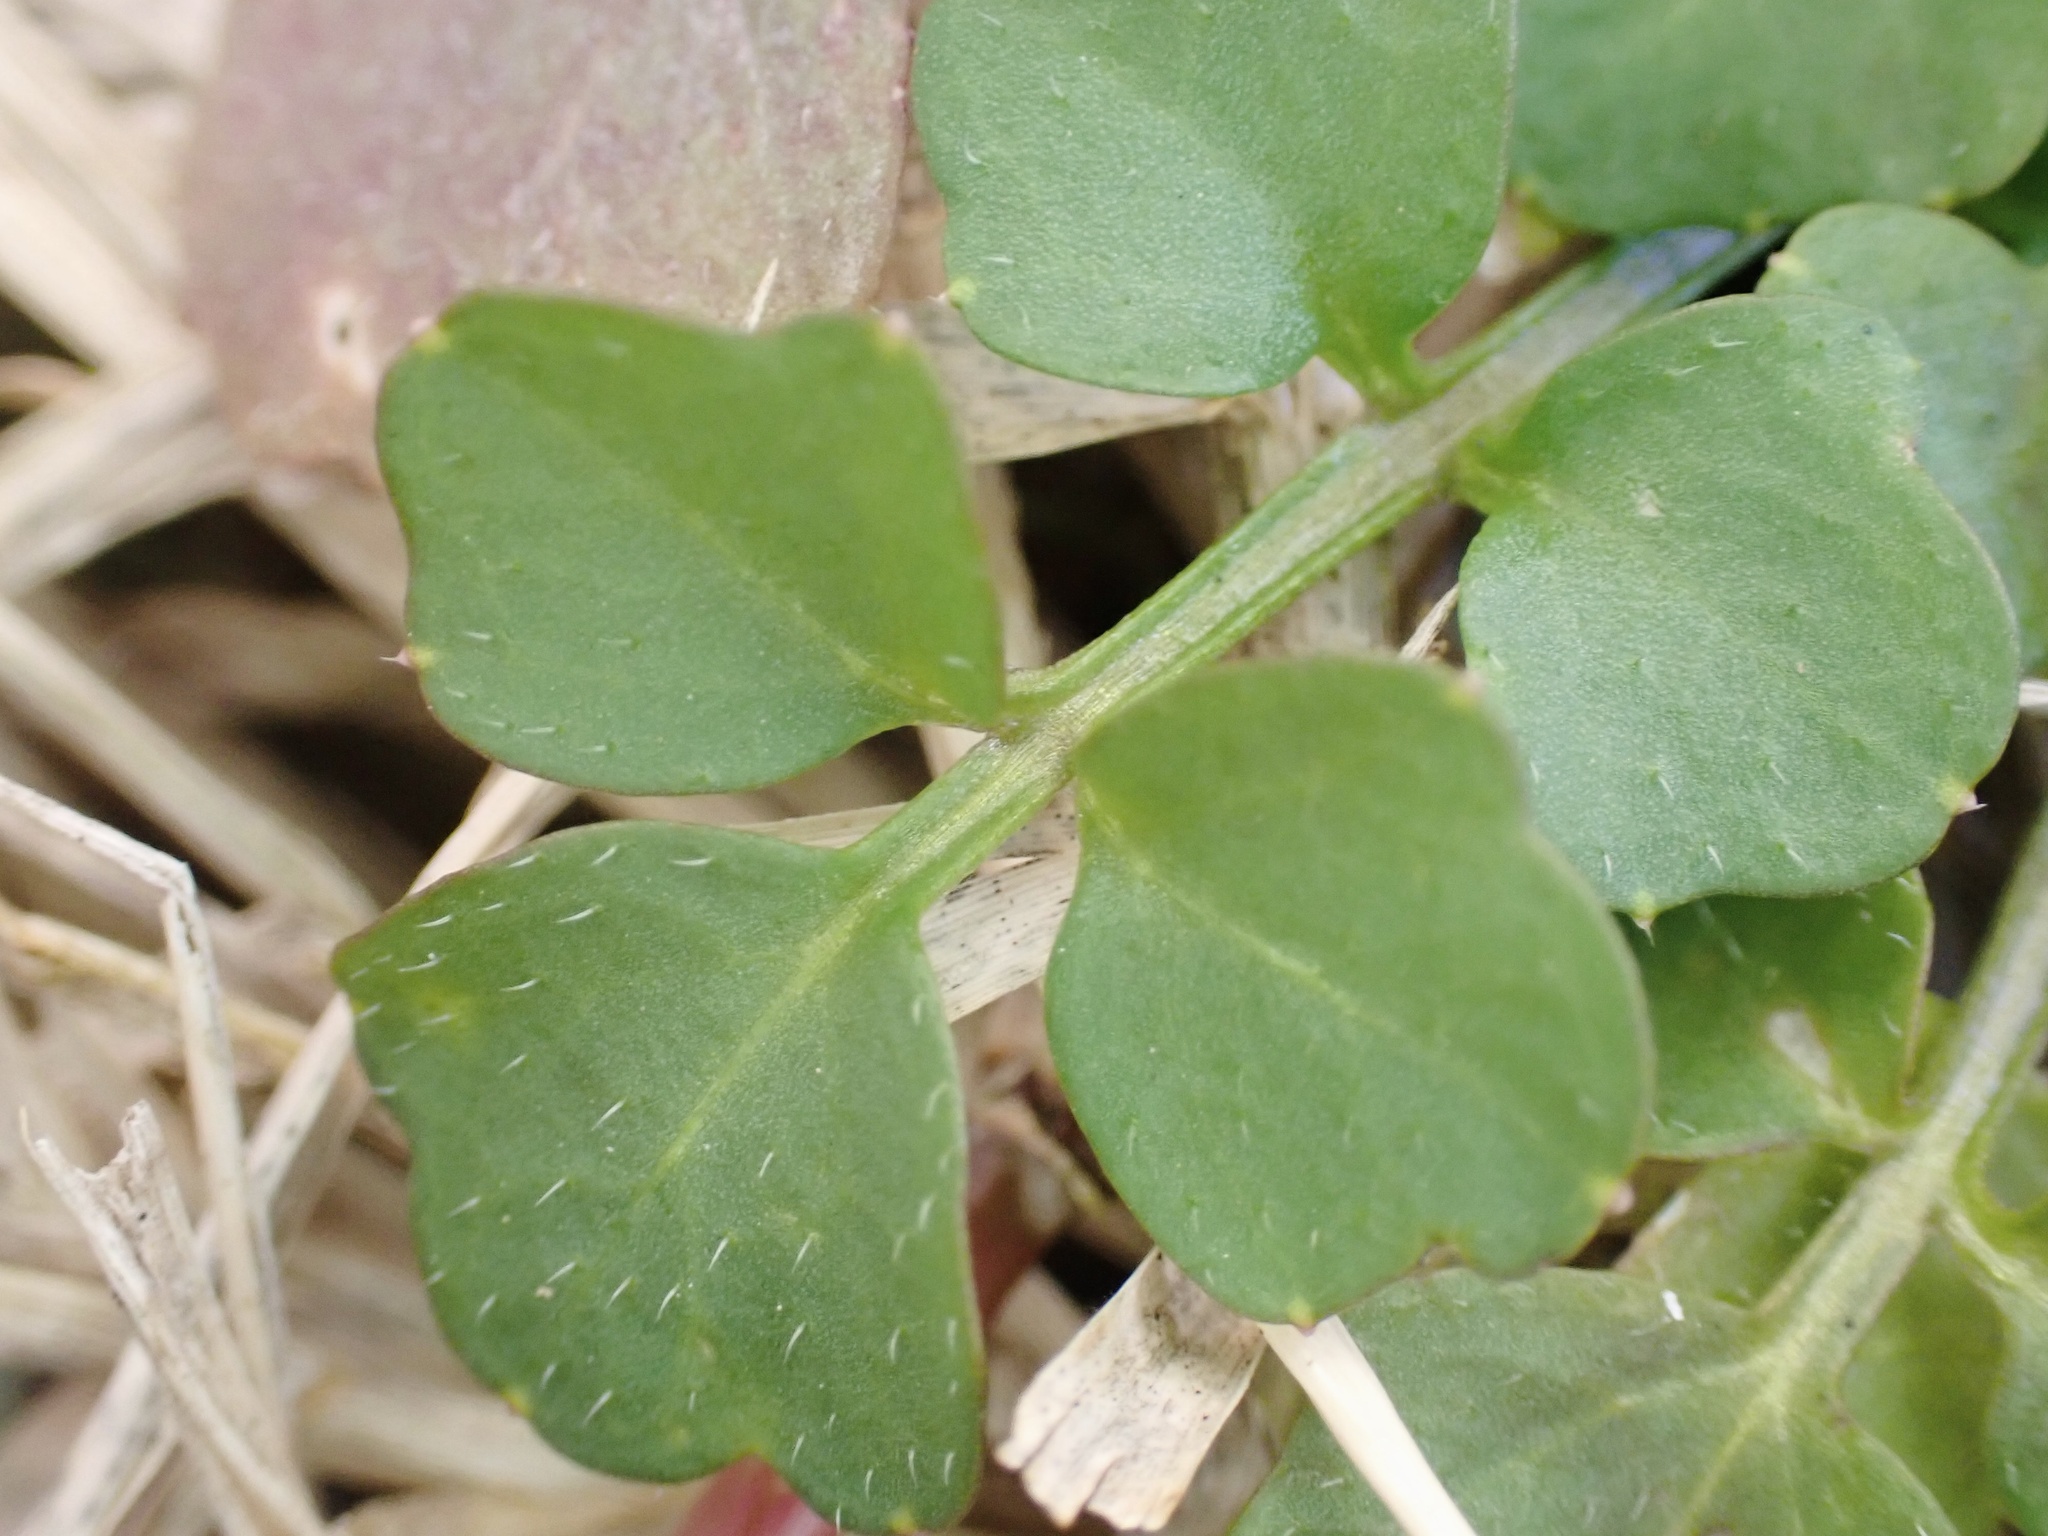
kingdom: Plantae
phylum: Tracheophyta
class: Magnoliopsida
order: Brassicales
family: Brassicaceae
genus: Cardamine
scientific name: Cardamine hirsuta
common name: Hairy bittercress
